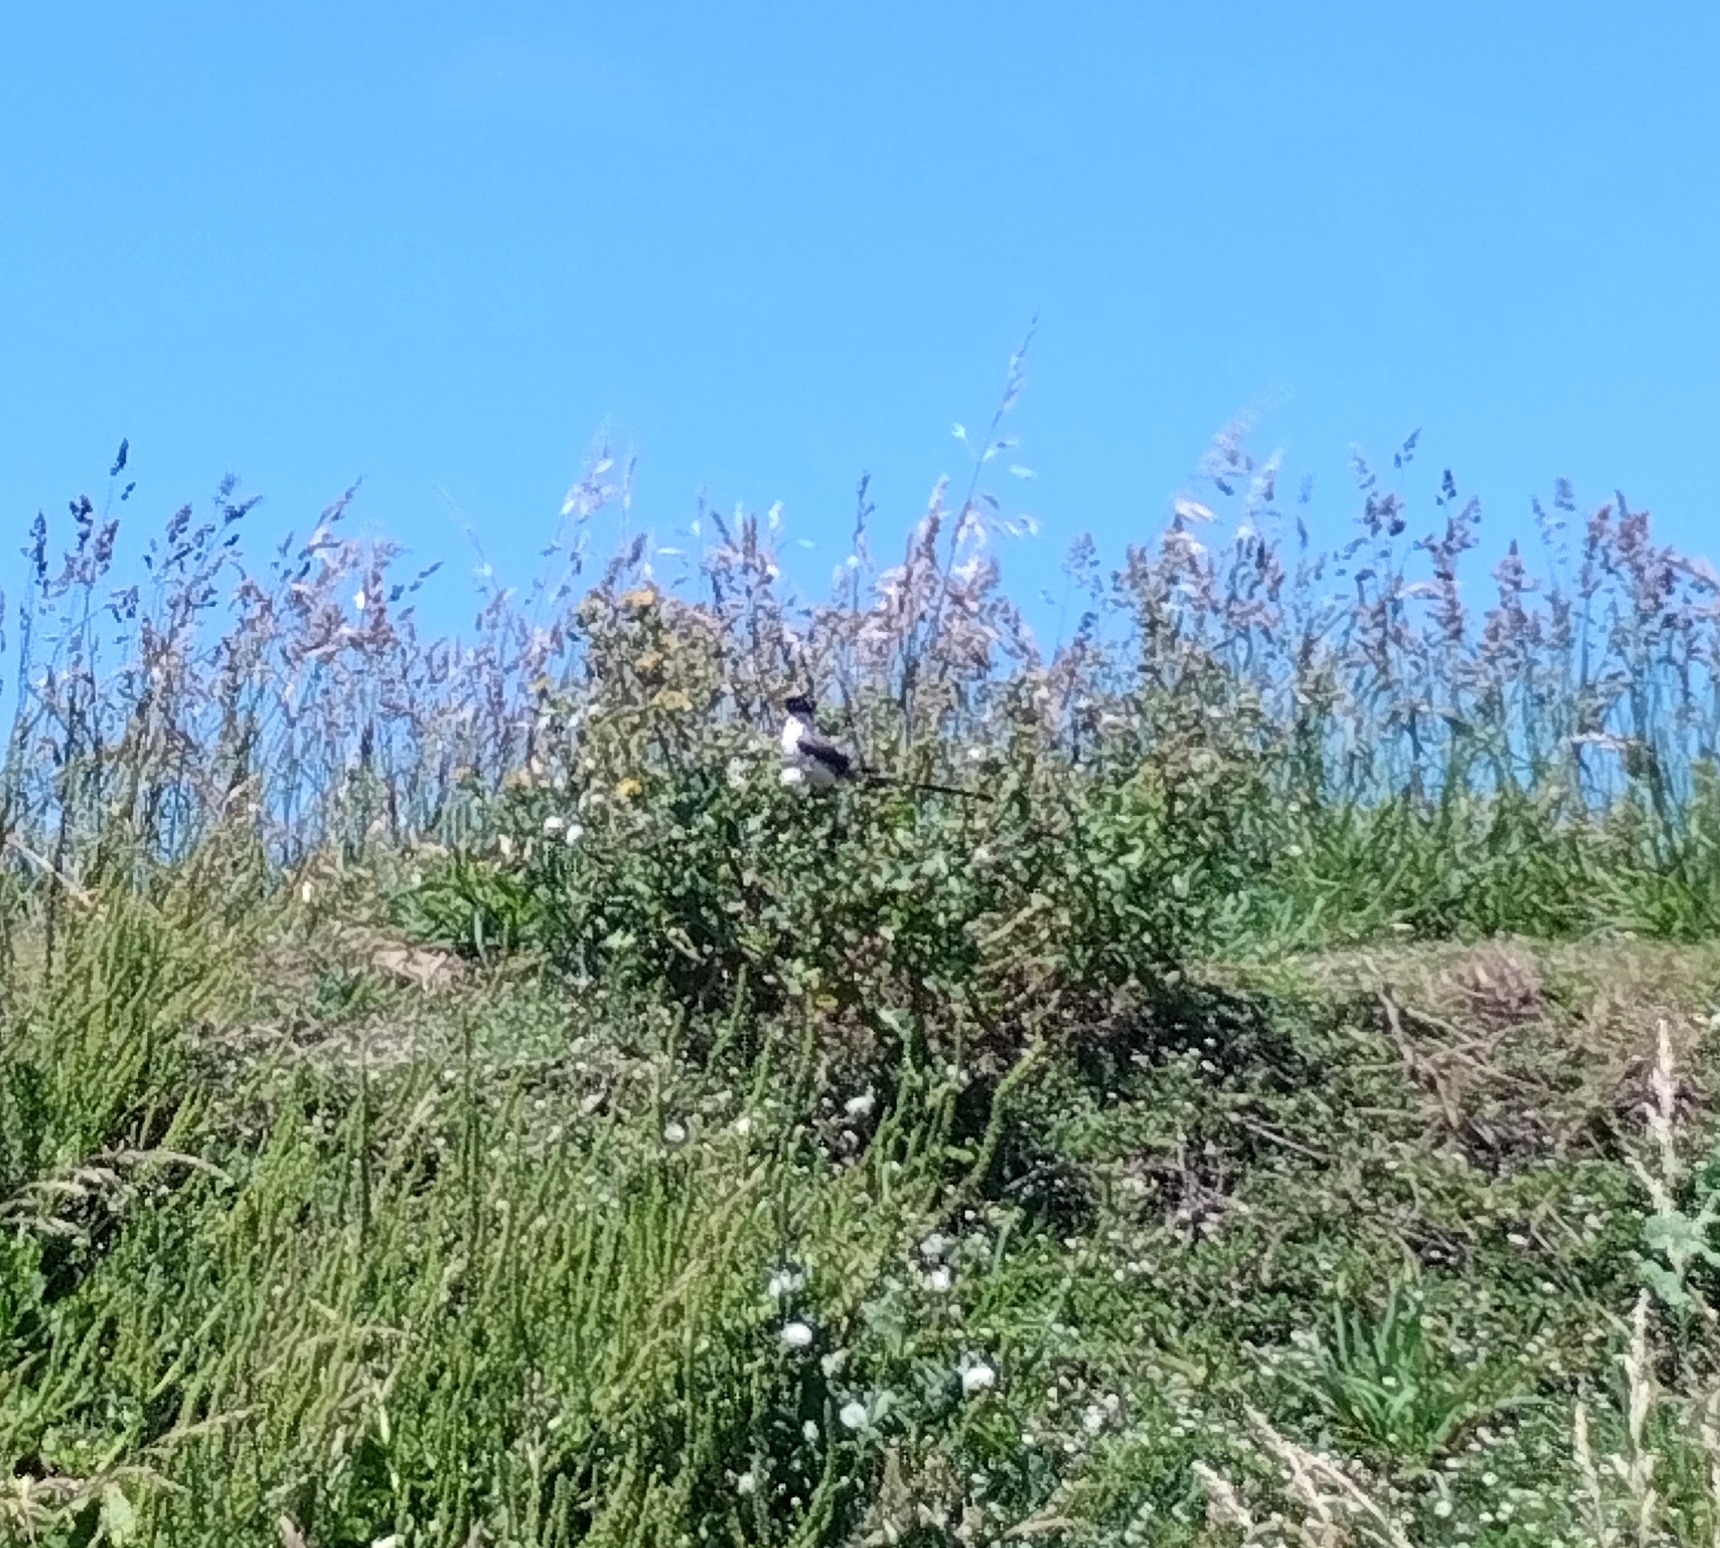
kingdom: Animalia
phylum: Chordata
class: Aves
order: Passeriformes
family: Tyrannidae
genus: Tyrannus
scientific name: Tyrannus savana
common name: Fork-tailed flycatcher
